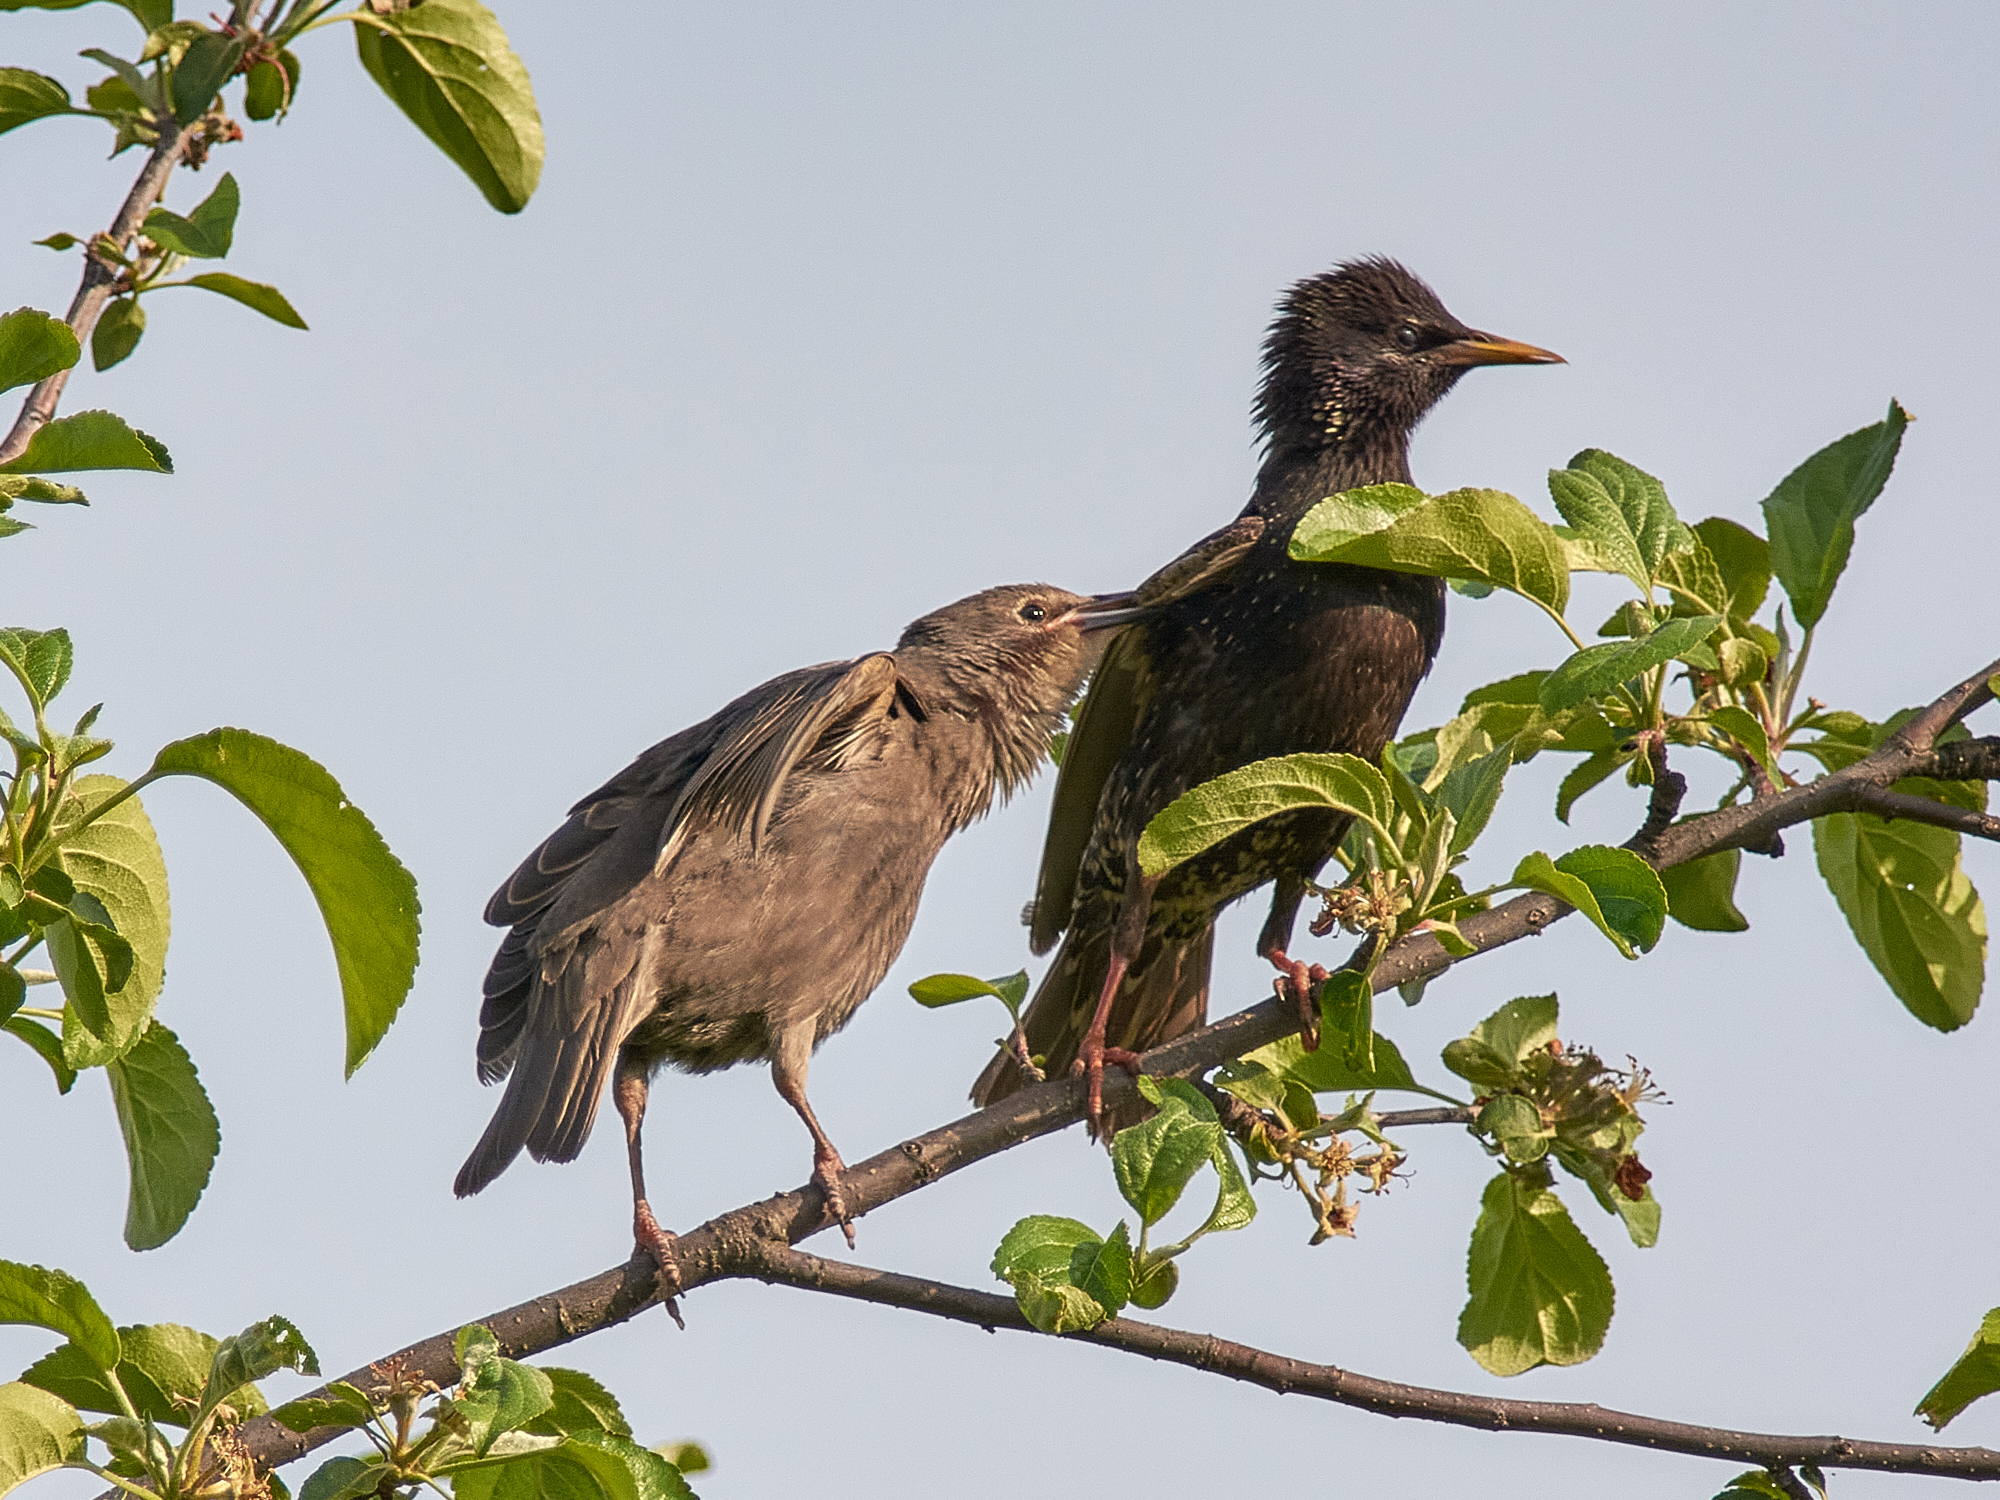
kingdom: Animalia
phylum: Chordata
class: Aves
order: Passeriformes
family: Sturnidae
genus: Sturnus
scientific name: Sturnus vulgaris
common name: Common starling
